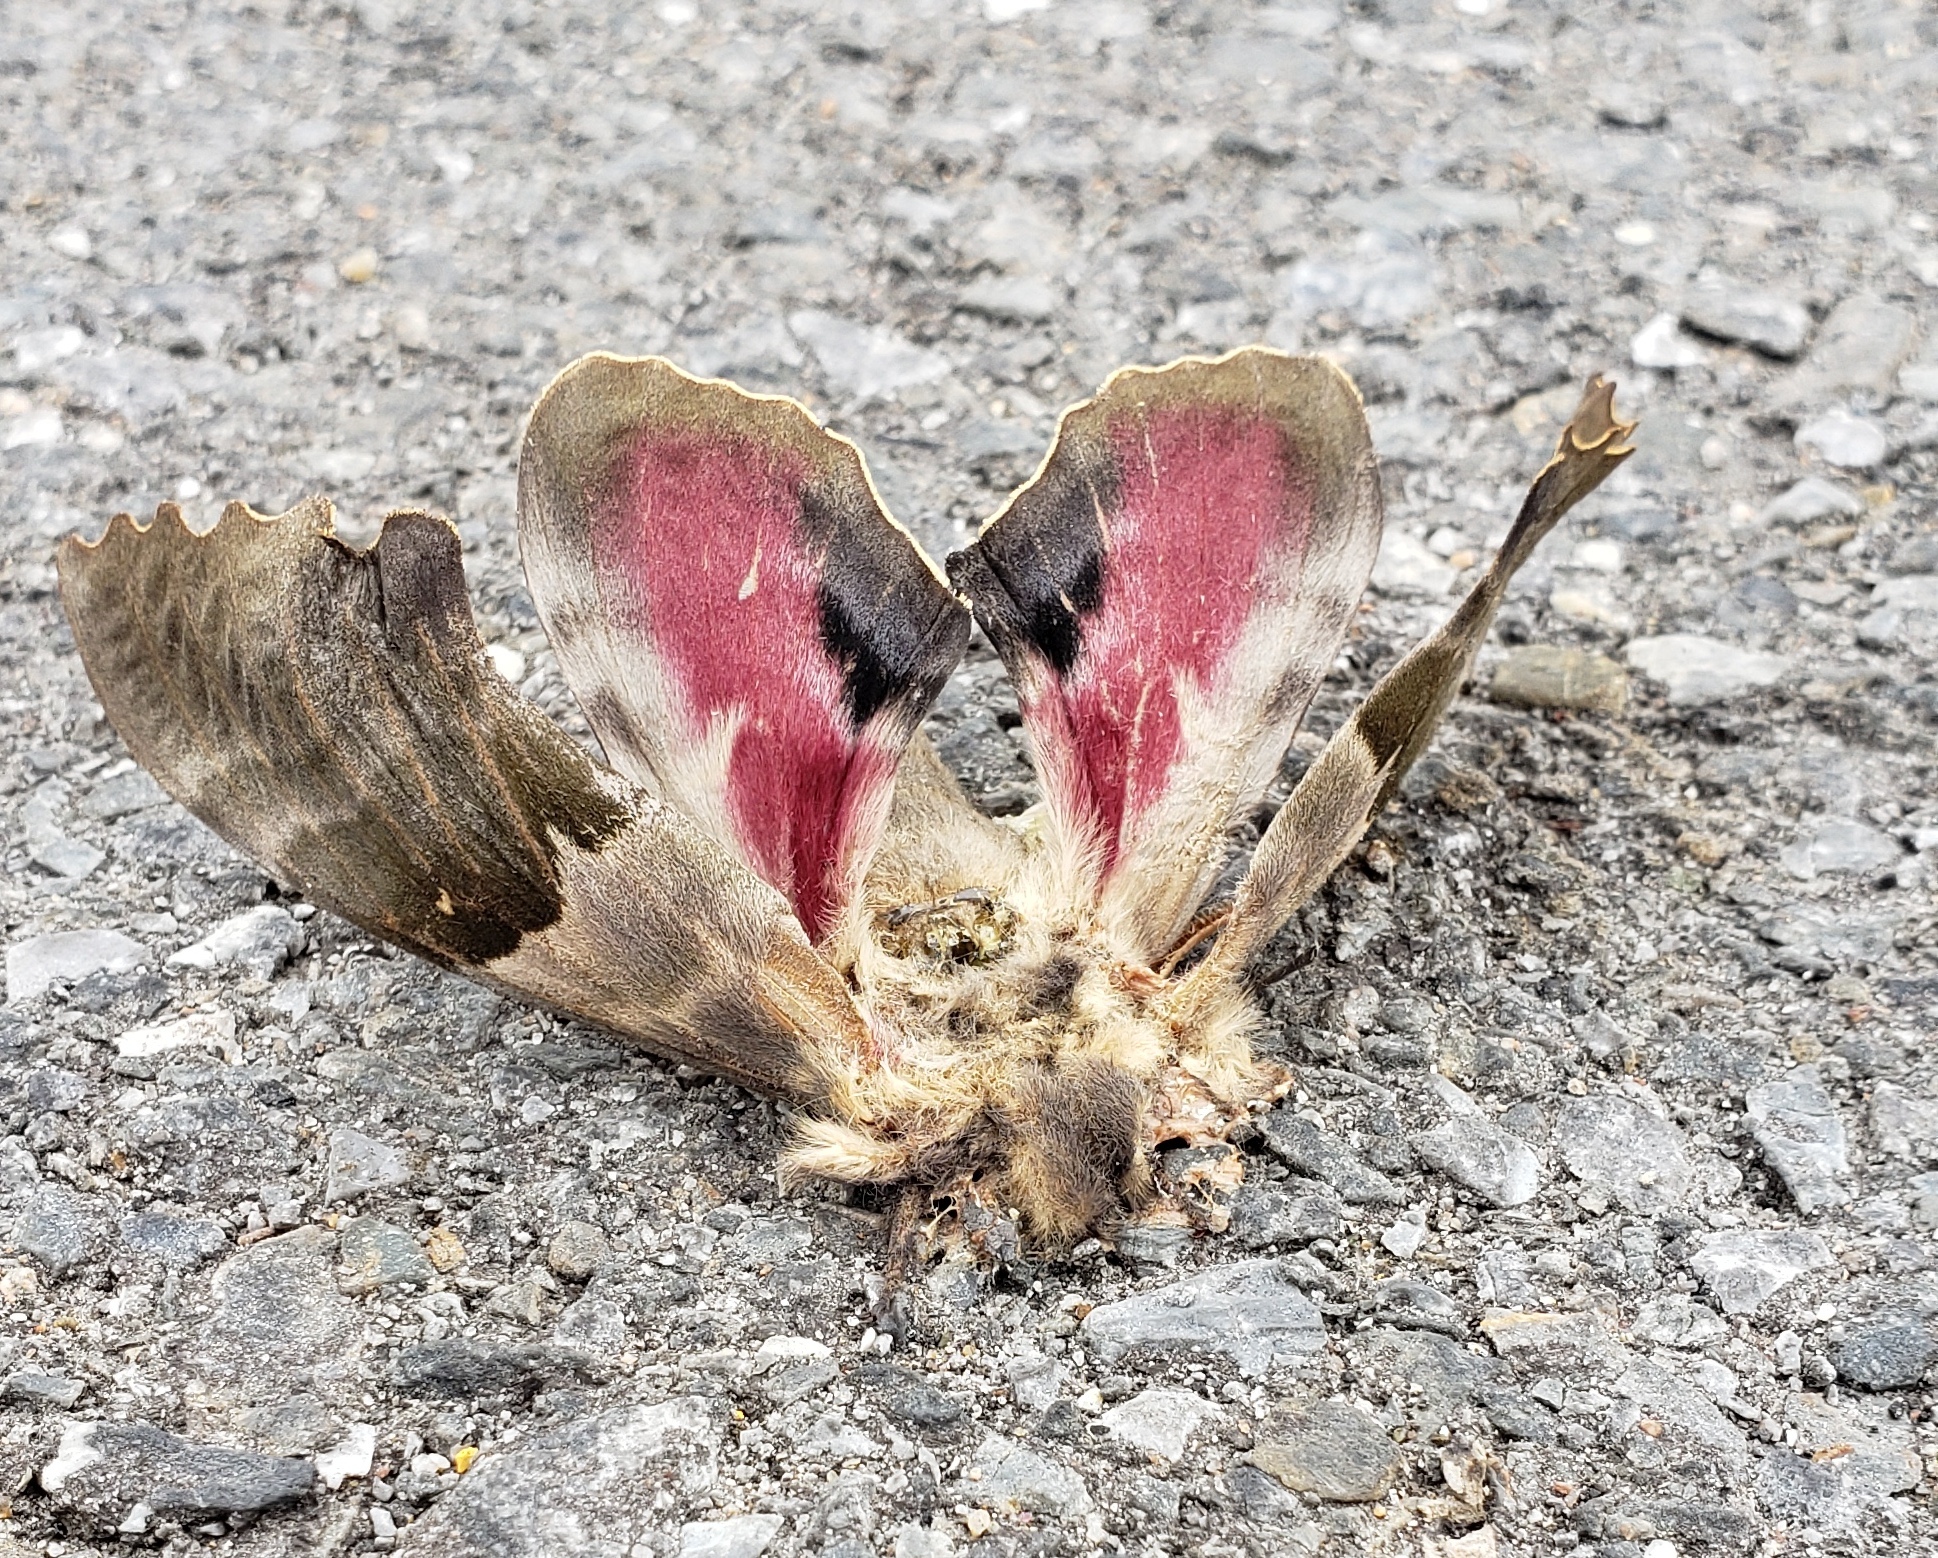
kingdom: Animalia
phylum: Arthropoda
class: Insecta
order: Lepidoptera
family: Sphingidae
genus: Pachysphinx
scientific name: Pachysphinx modesta
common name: Big poplar sphinx
